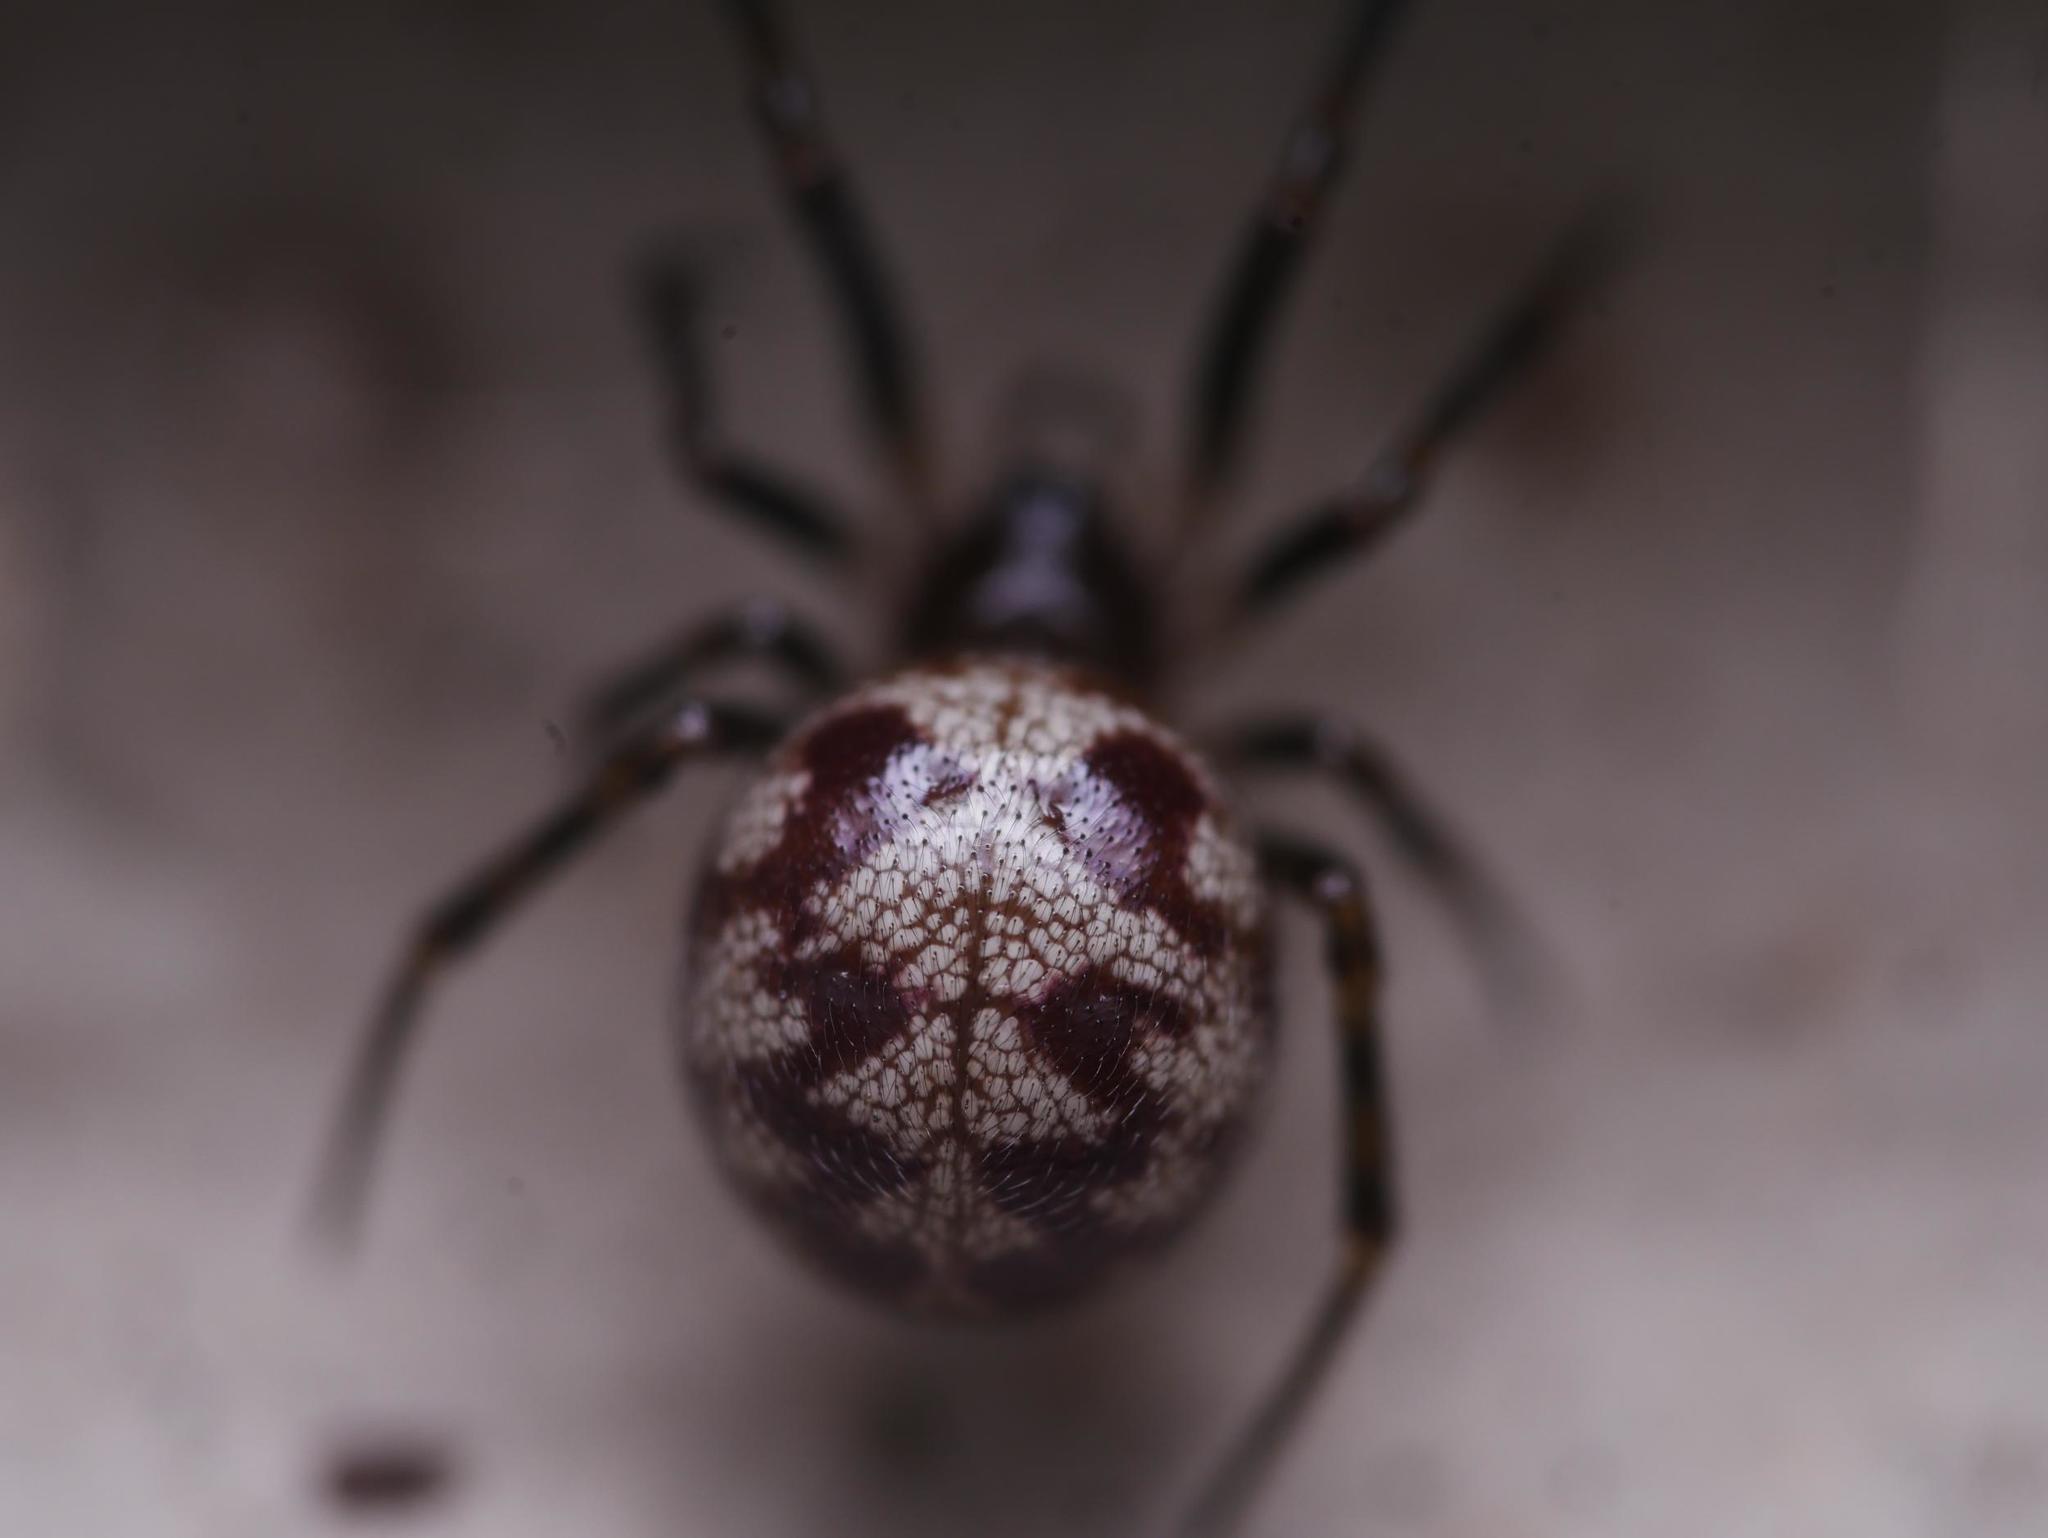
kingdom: Animalia
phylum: Arthropoda
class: Arachnida
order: Araneae
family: Theridiidae
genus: Steatoda
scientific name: Steatoda triangulosa
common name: Triangulate bud spider
